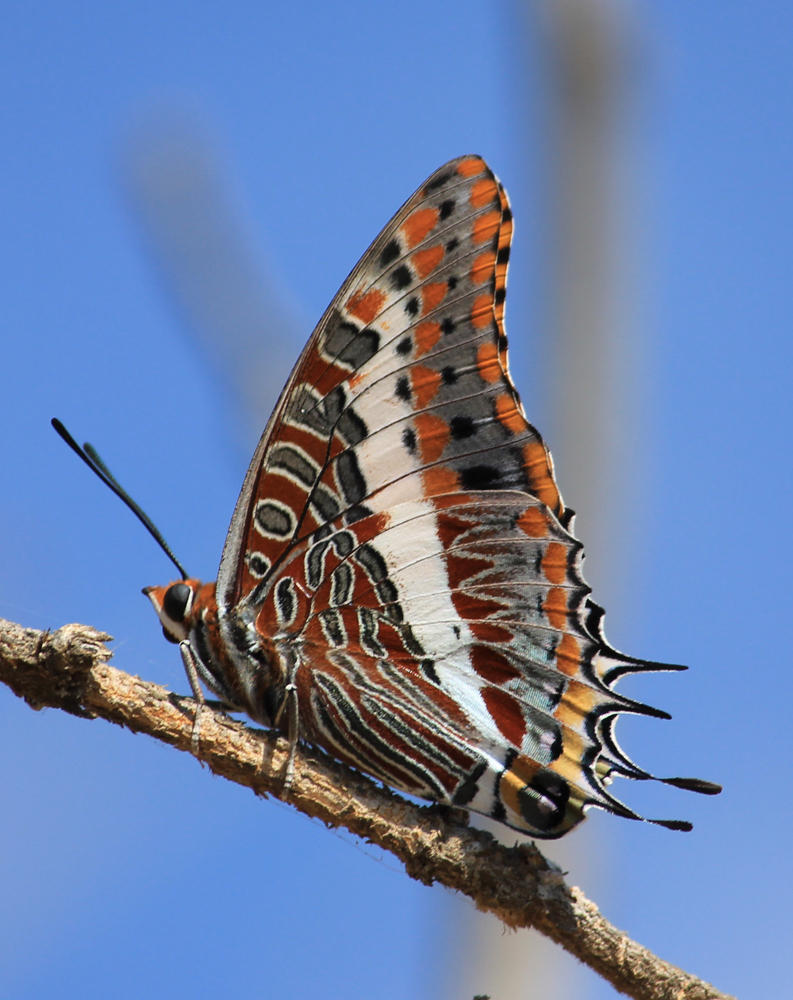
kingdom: Animalia
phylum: Arthropoda
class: Insecta
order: Lepidoptera
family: Nymphalidae
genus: Charaxes
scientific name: Charaxes jasius
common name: Two tailed pasha
